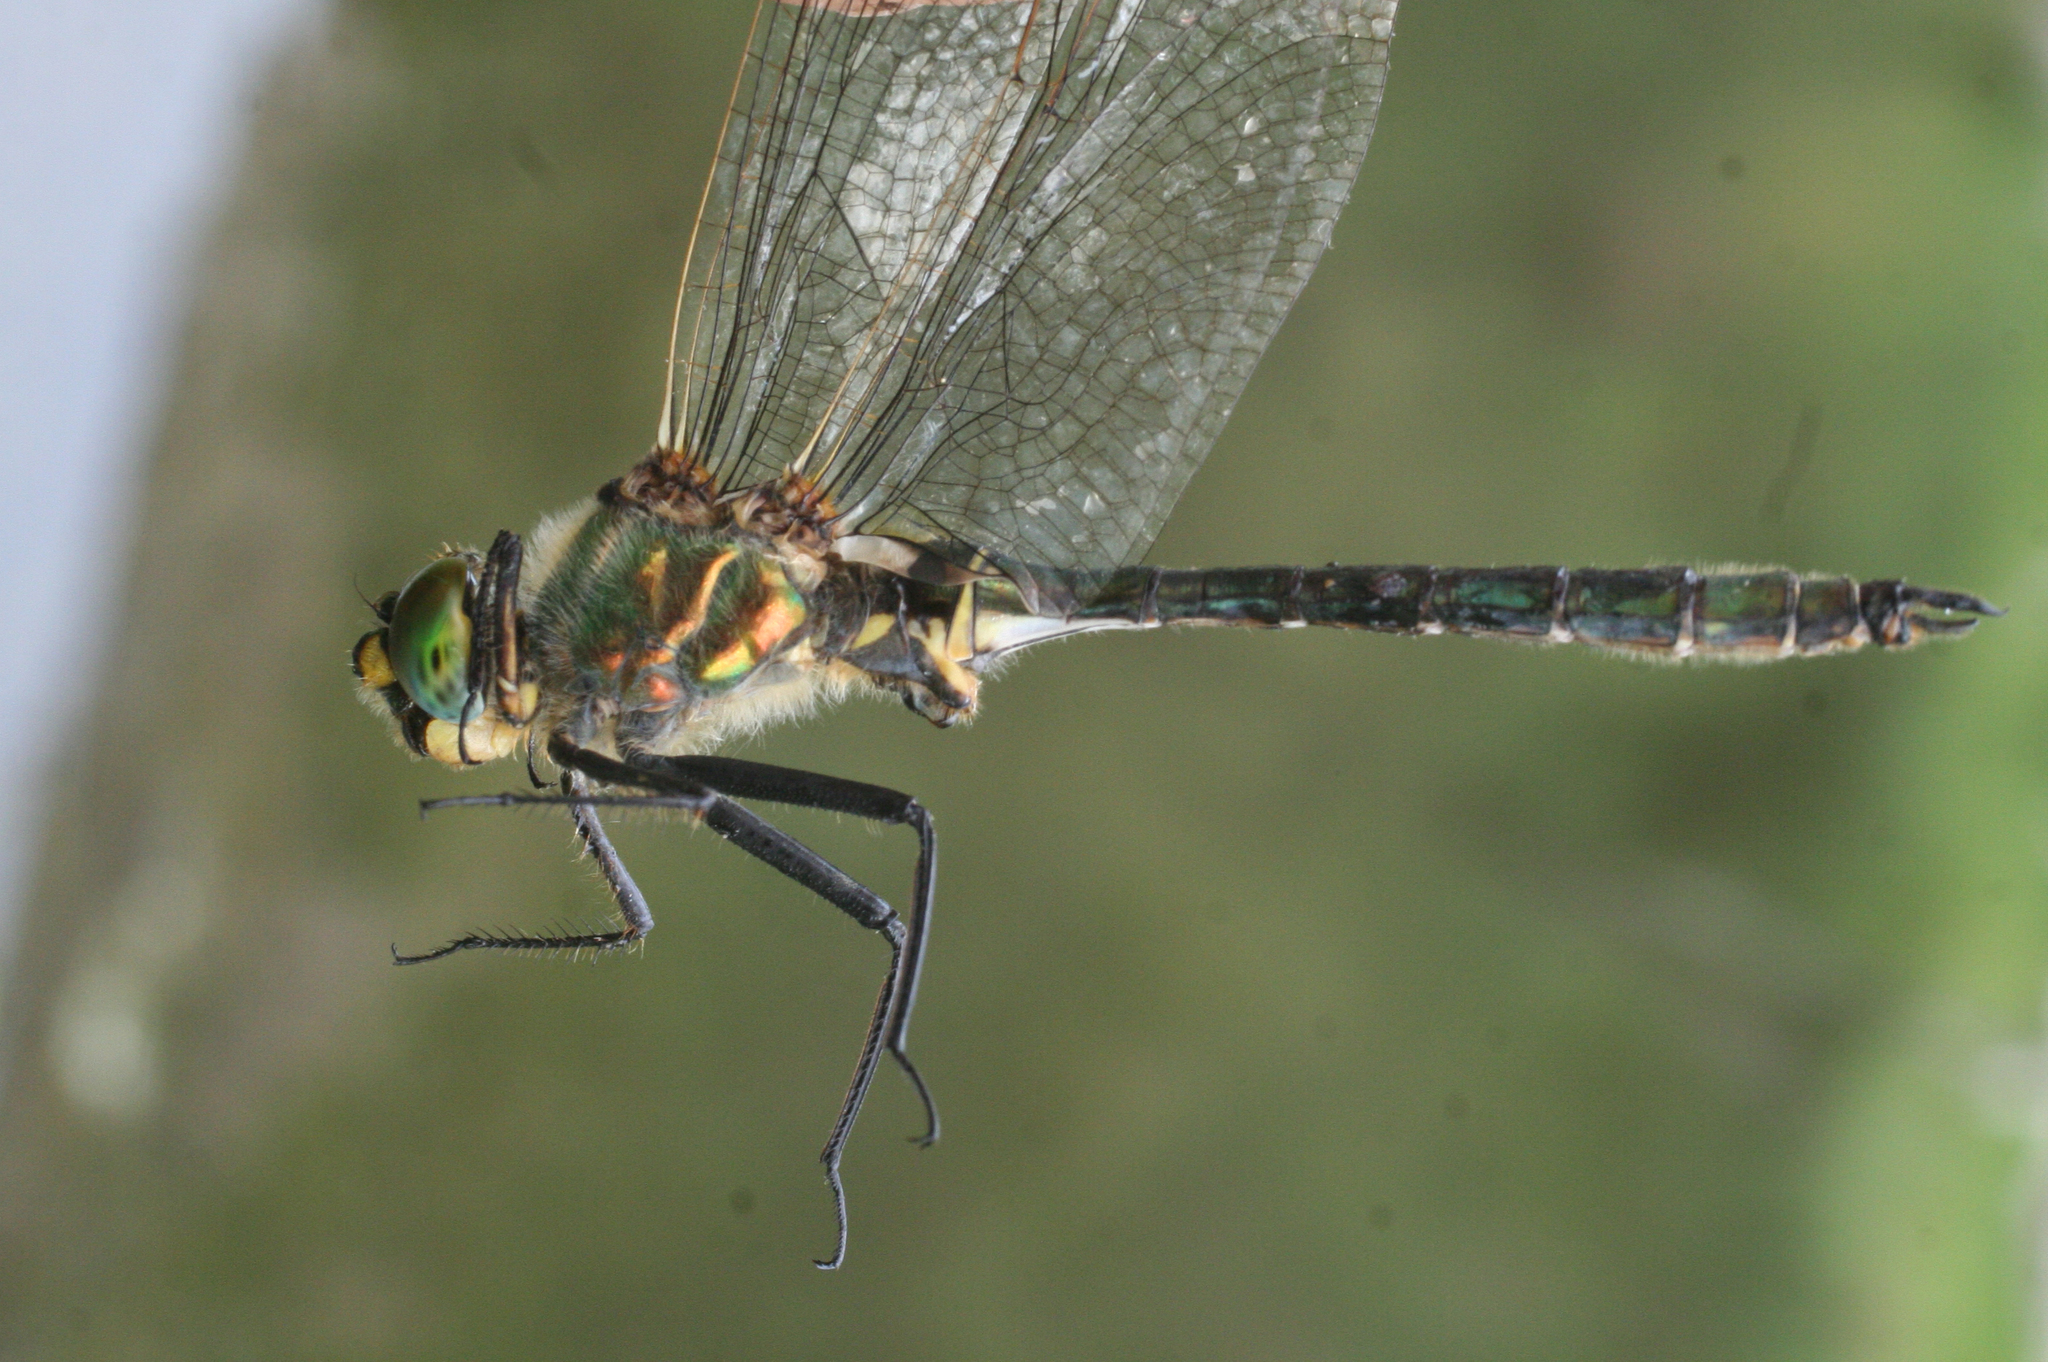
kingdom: Animalia
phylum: Arthropoda
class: Insecta
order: Odonata
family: Corduliidae
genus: Somatochlora
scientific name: Somatochlora metallica
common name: Brilliant emerald
